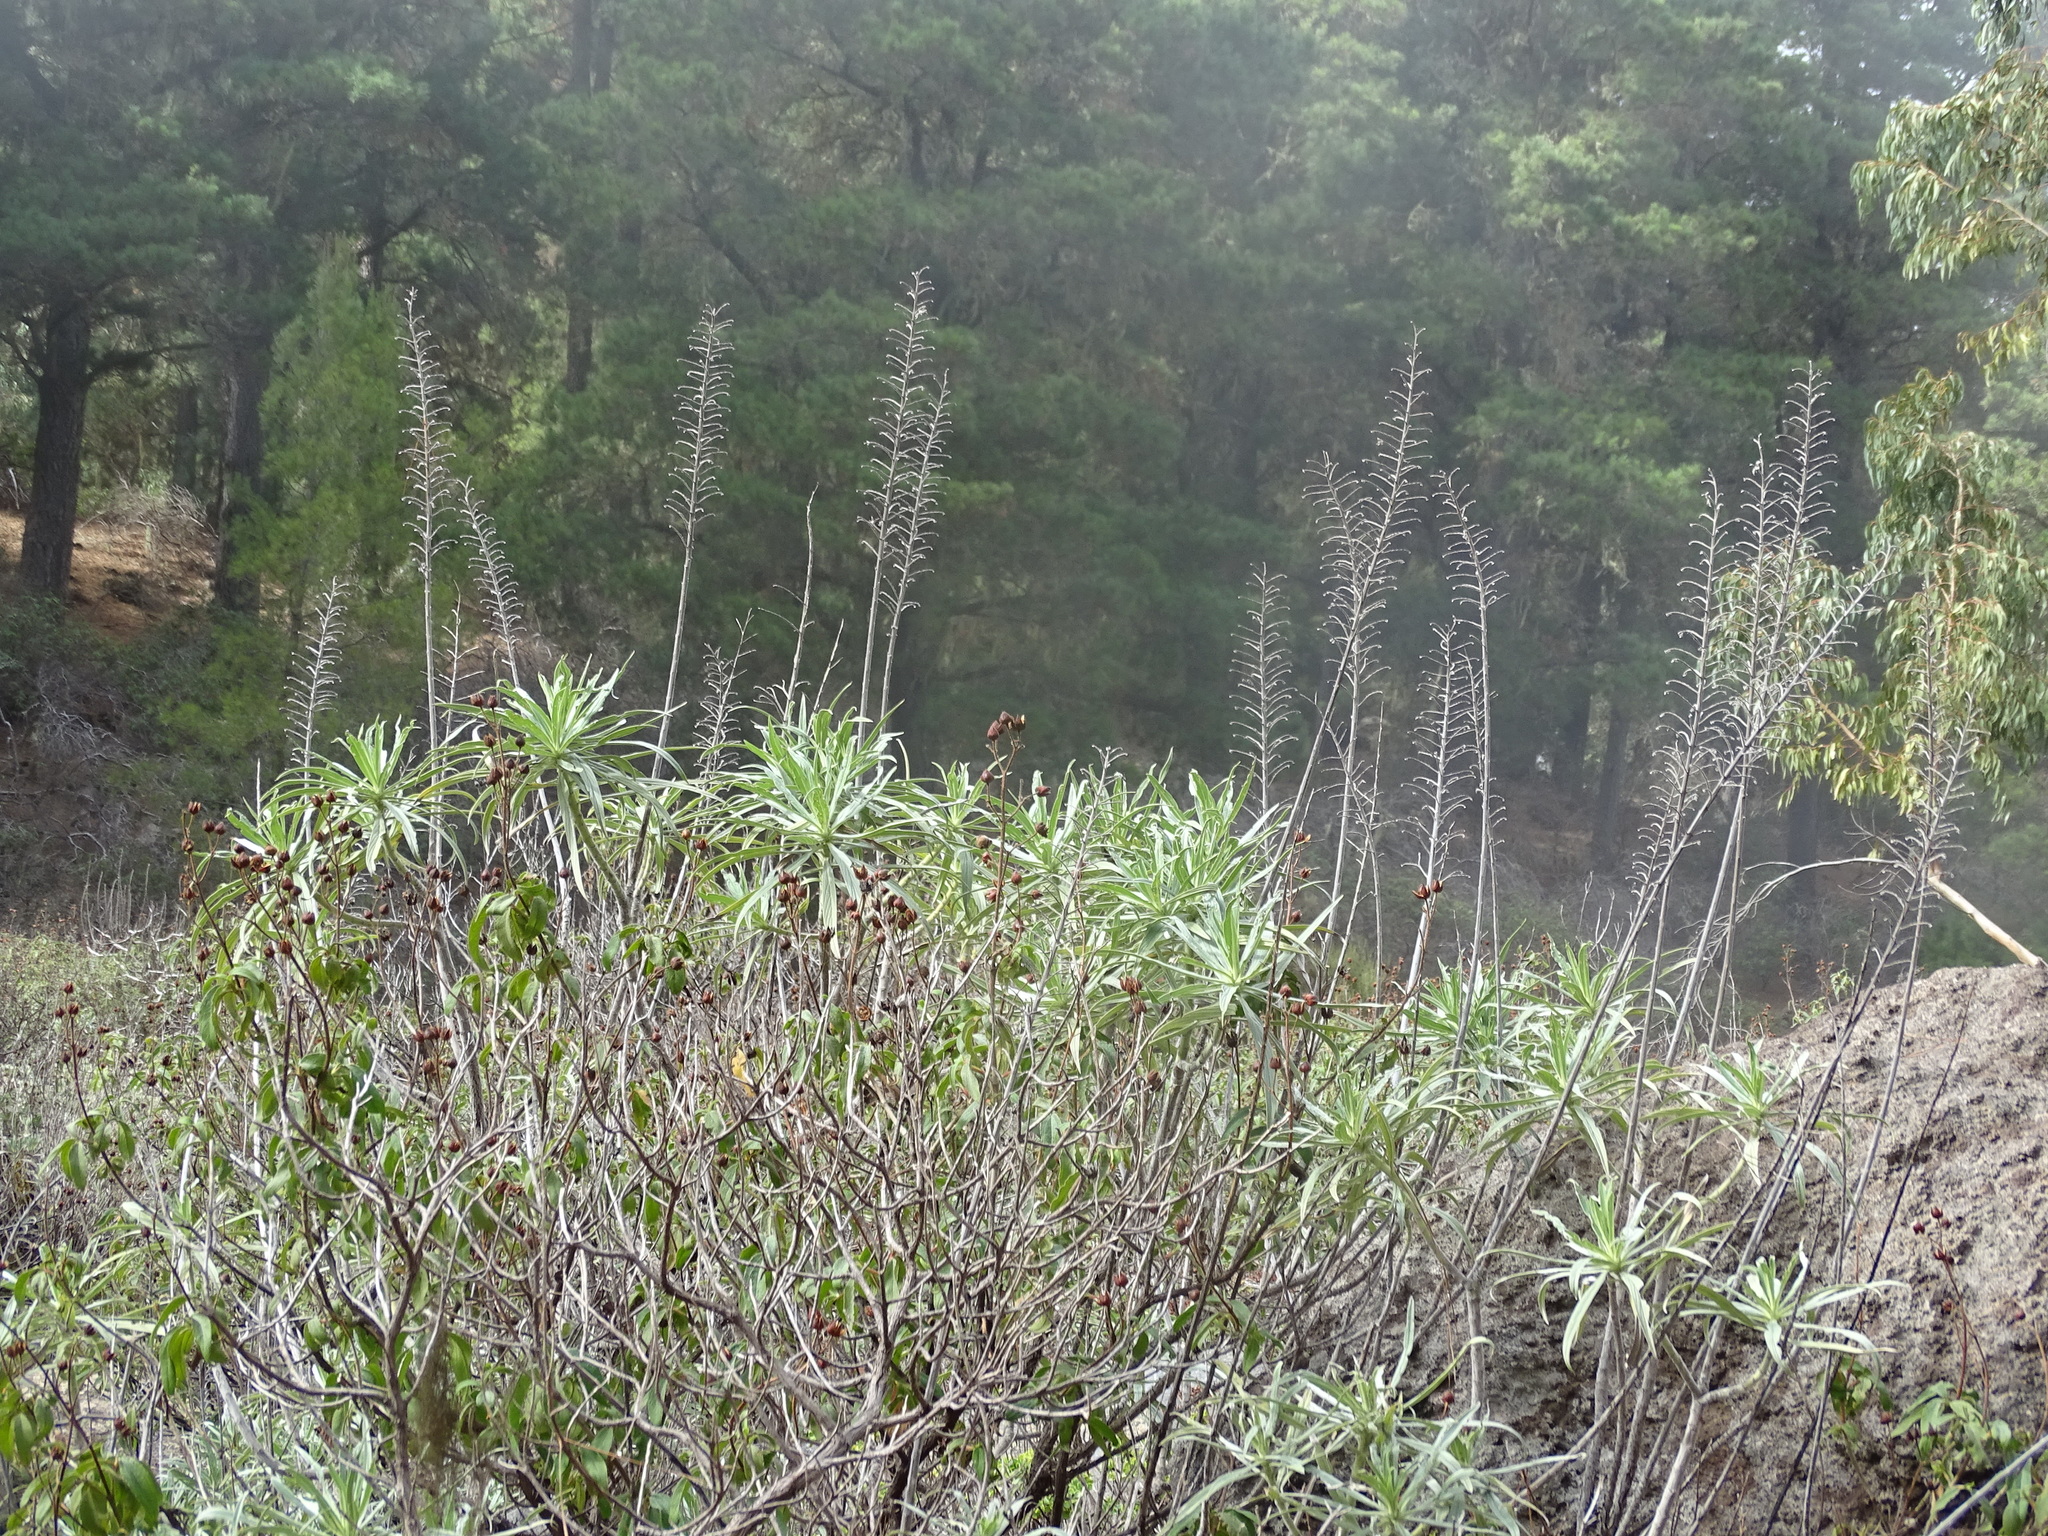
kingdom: Plantae
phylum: Tracheophyta
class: Magnoliopsida
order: Boraginales
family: Boraginaceae
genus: Echium
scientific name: Echium virescens
